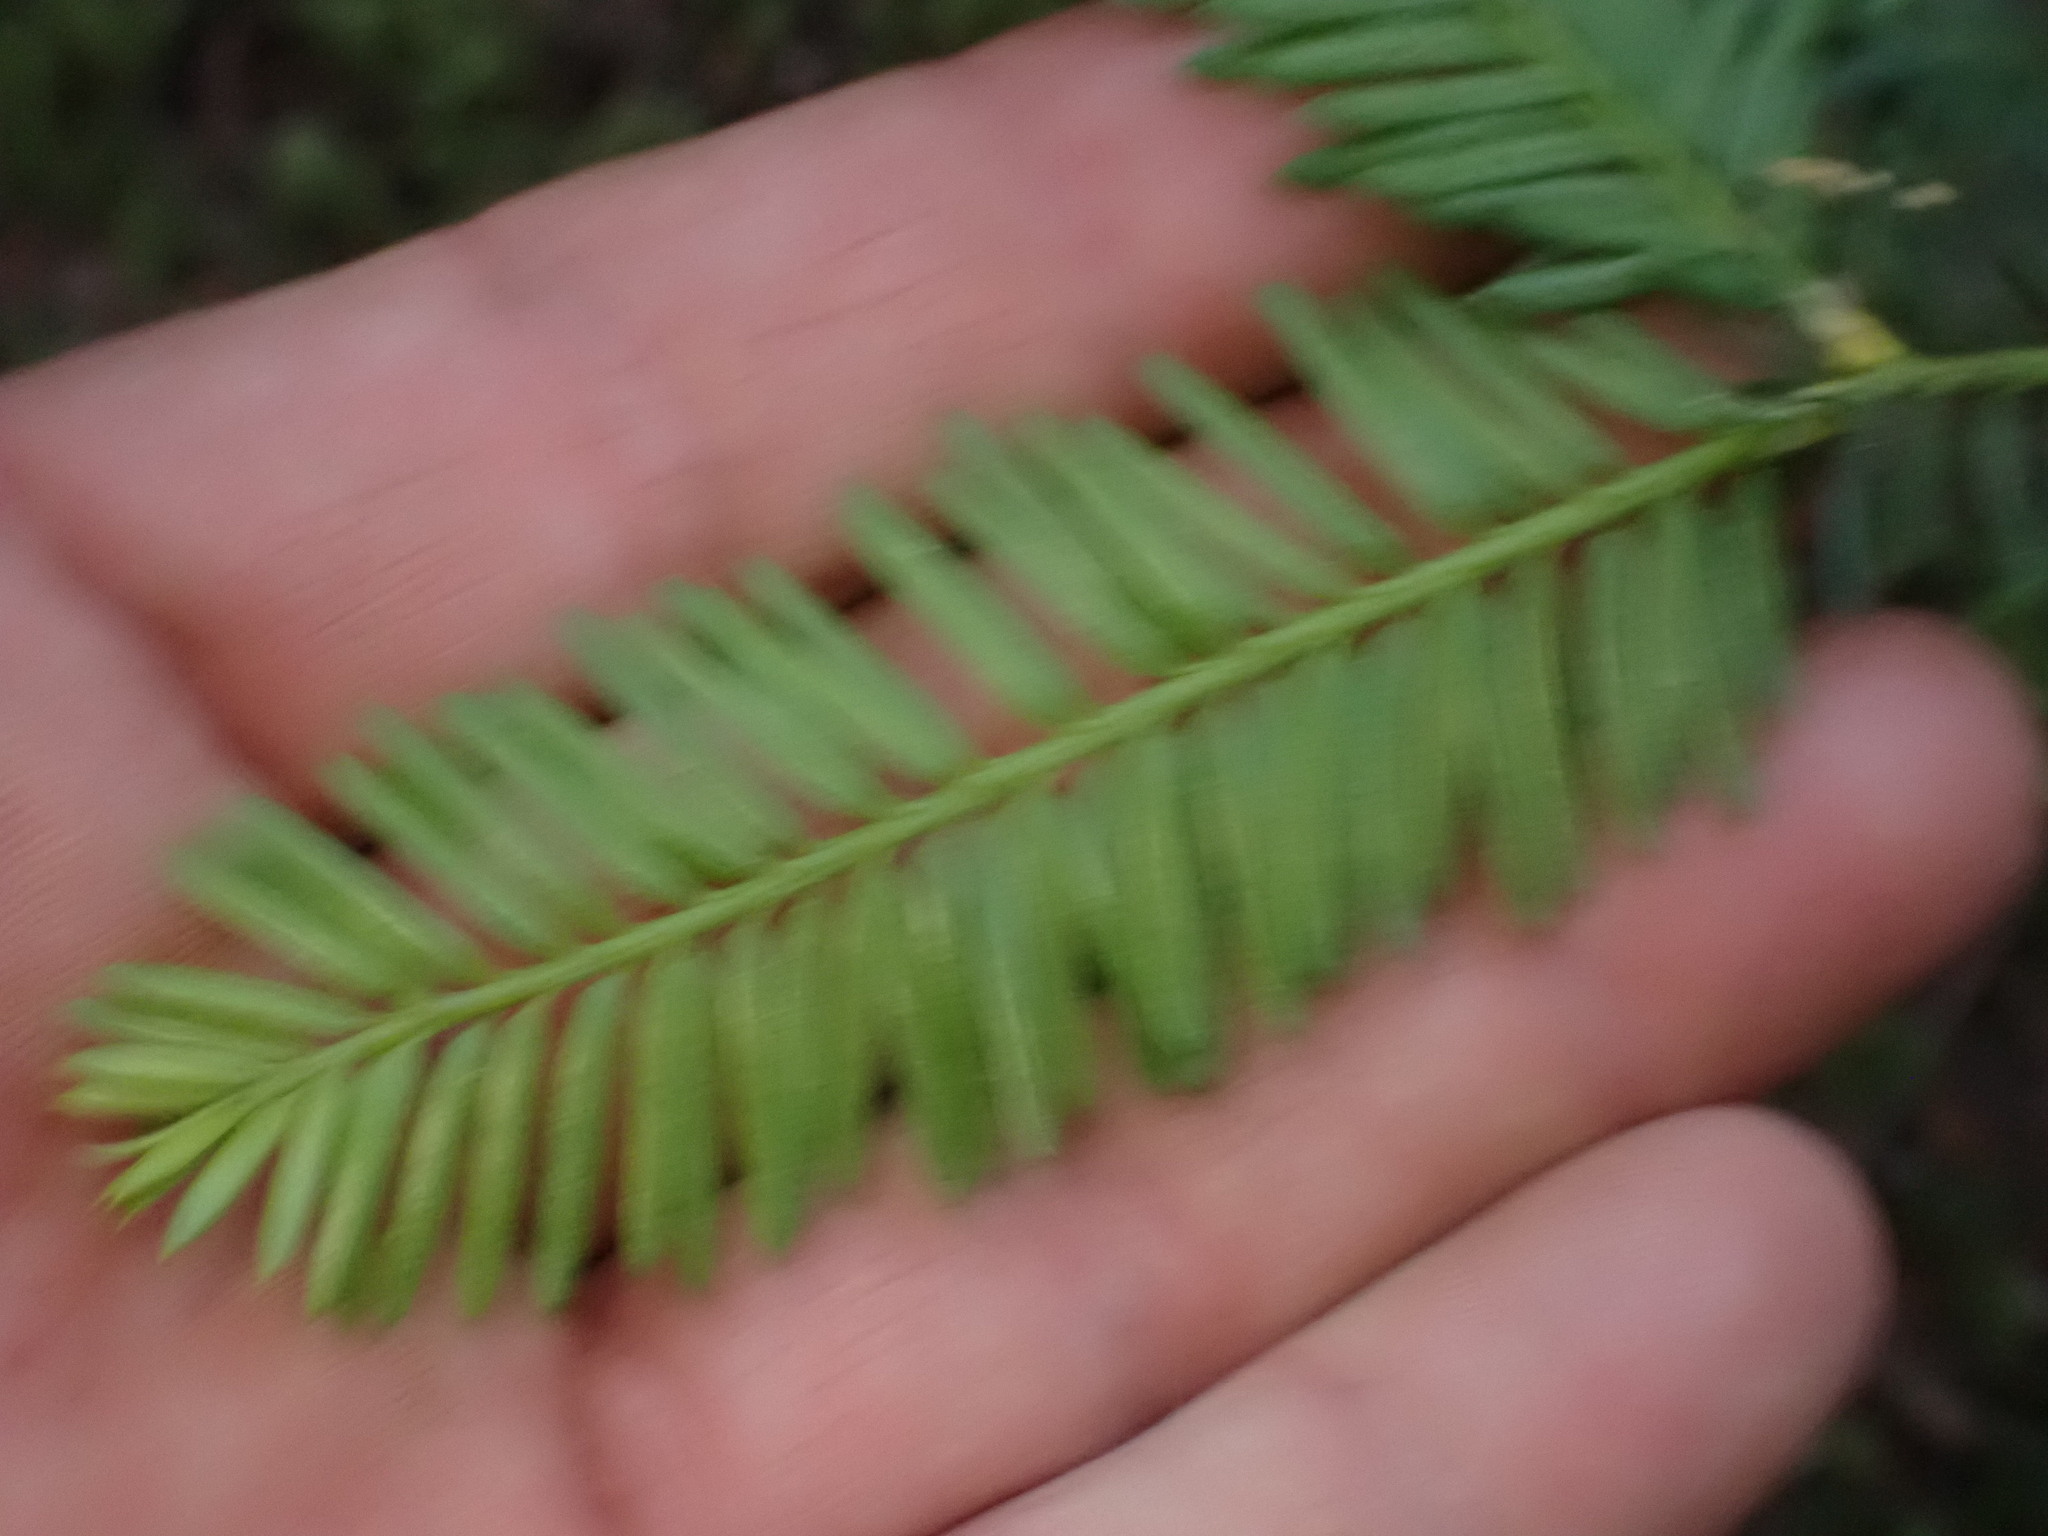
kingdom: Plantae
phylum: Tracheophyta
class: Pinopsida
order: Pinales
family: Taxaceae
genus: Taxus
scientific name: Taxus brevifolia
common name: Pacific yew
